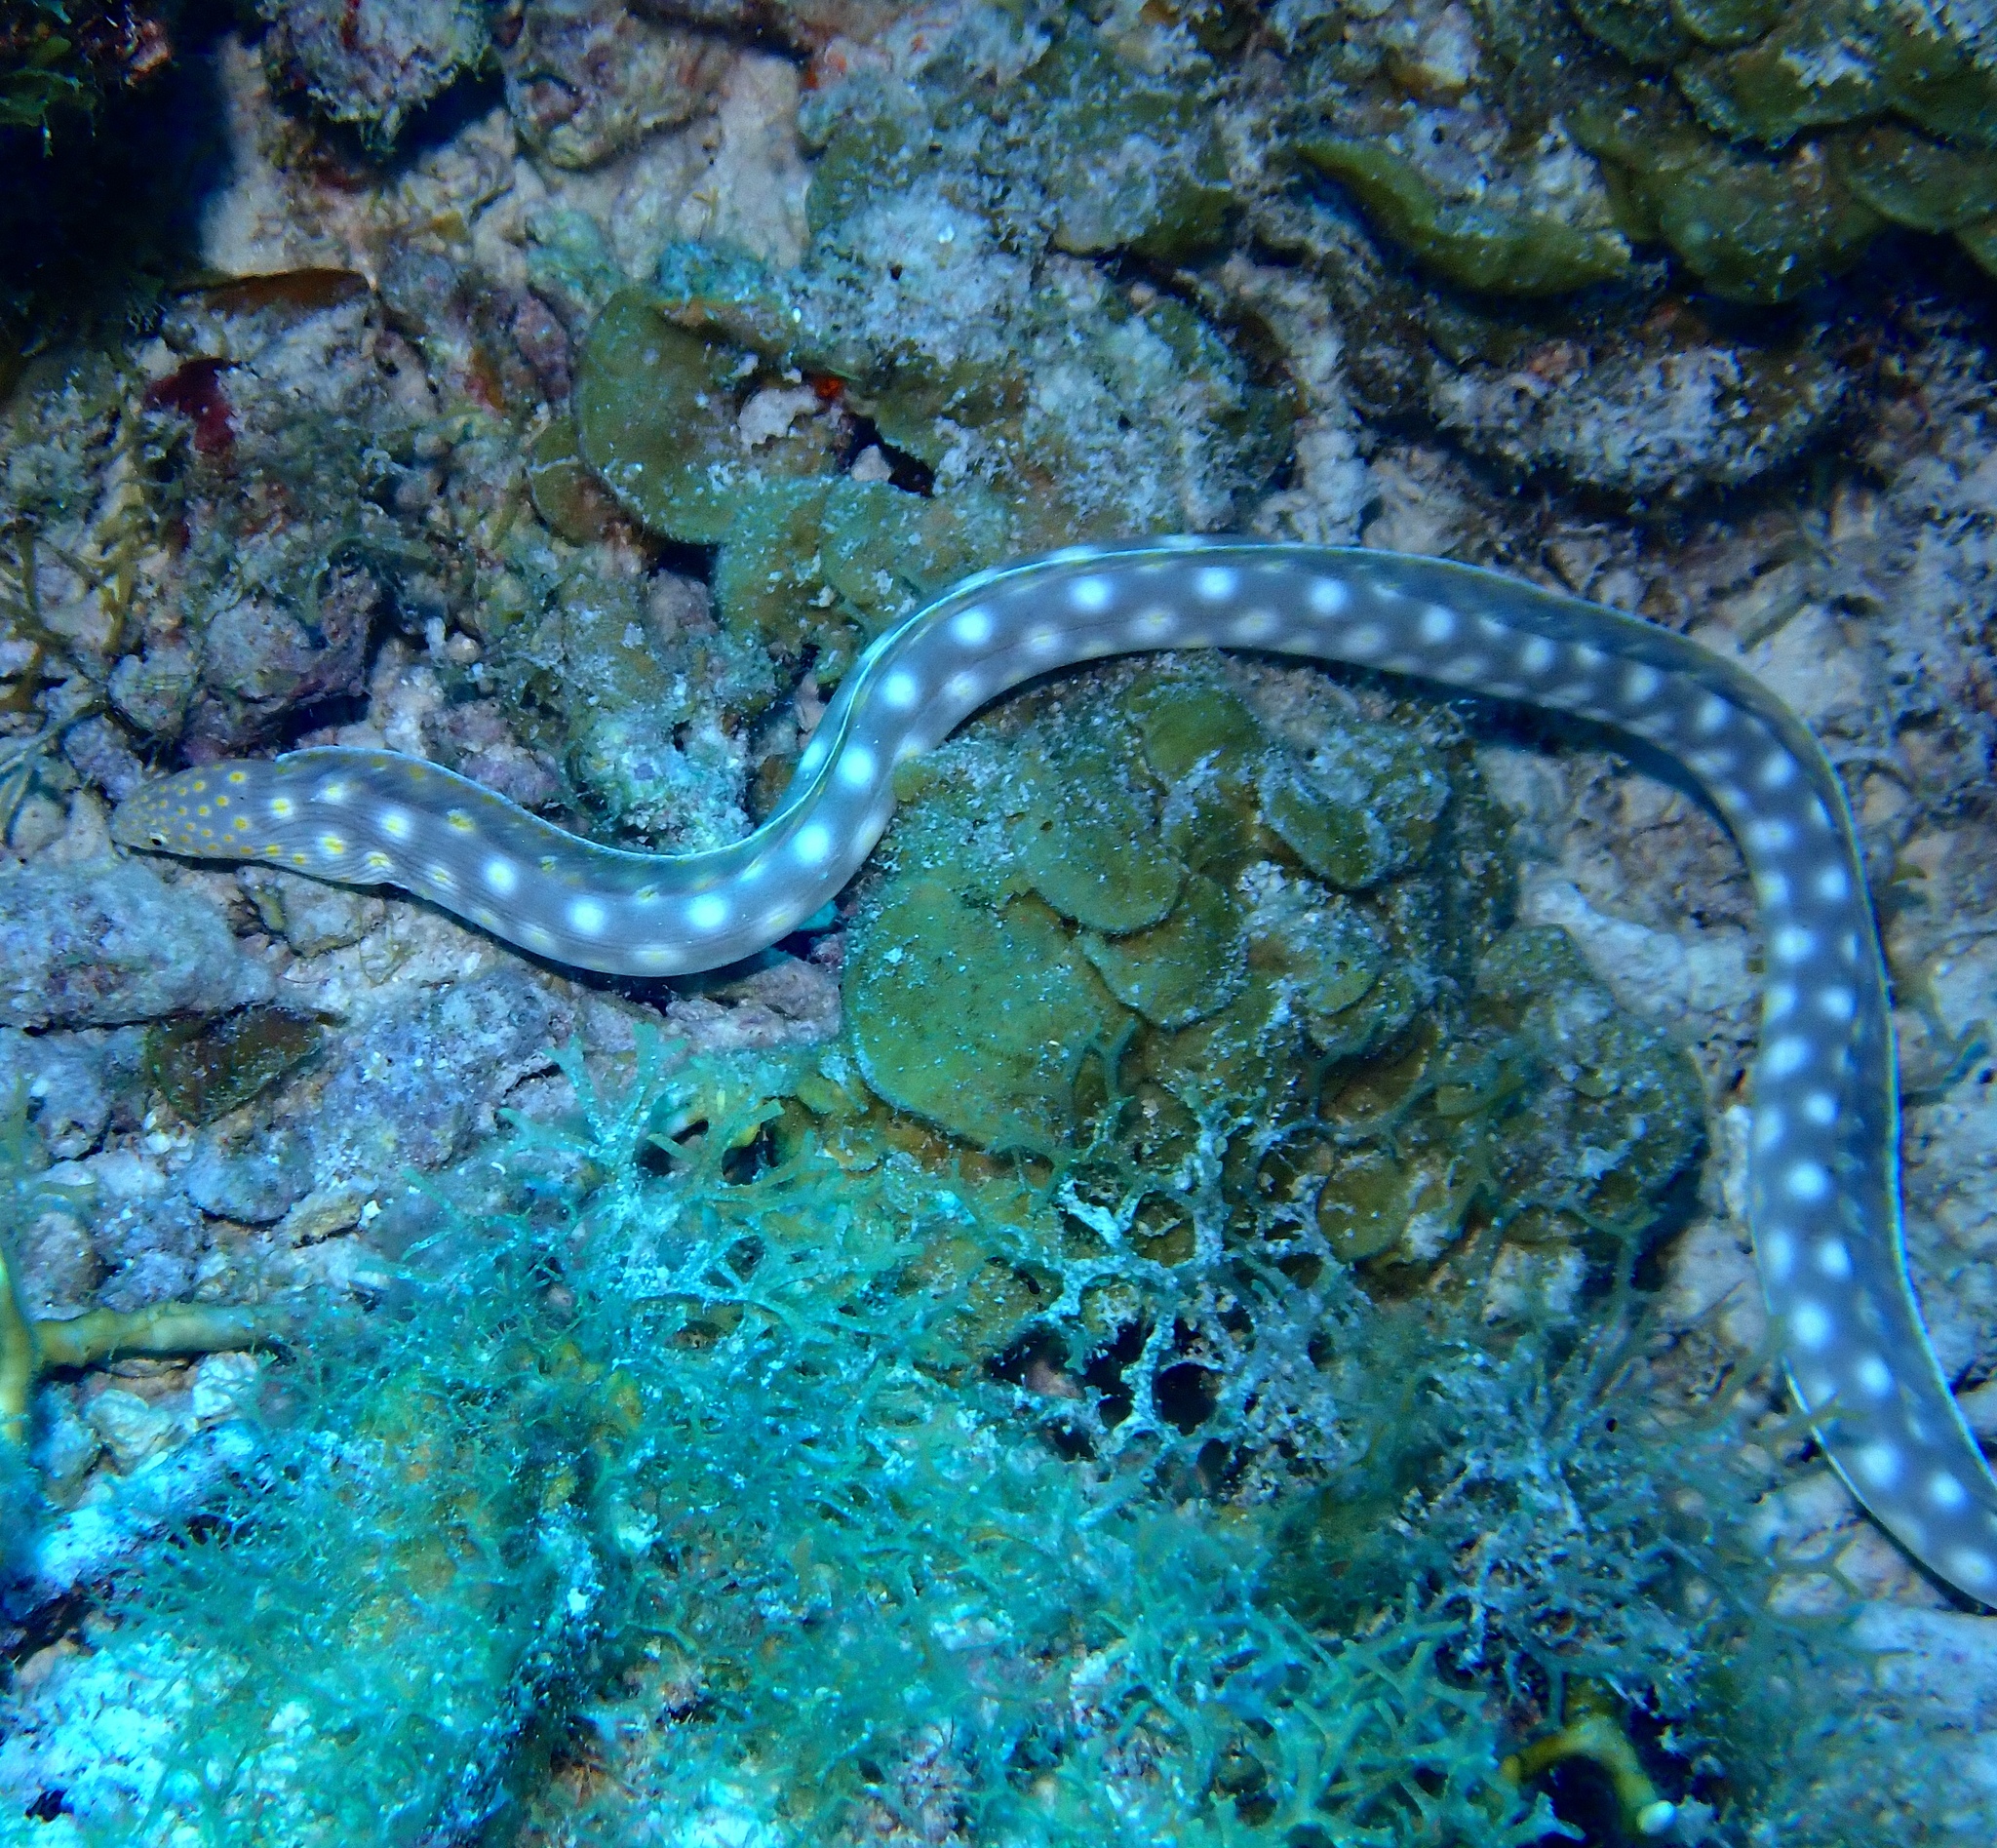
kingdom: Animalia
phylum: Chordata
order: Anguilliformes
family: Ophichthidae
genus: Myrichthys
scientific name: Myrichthys breviceps
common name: Sharptail eel
